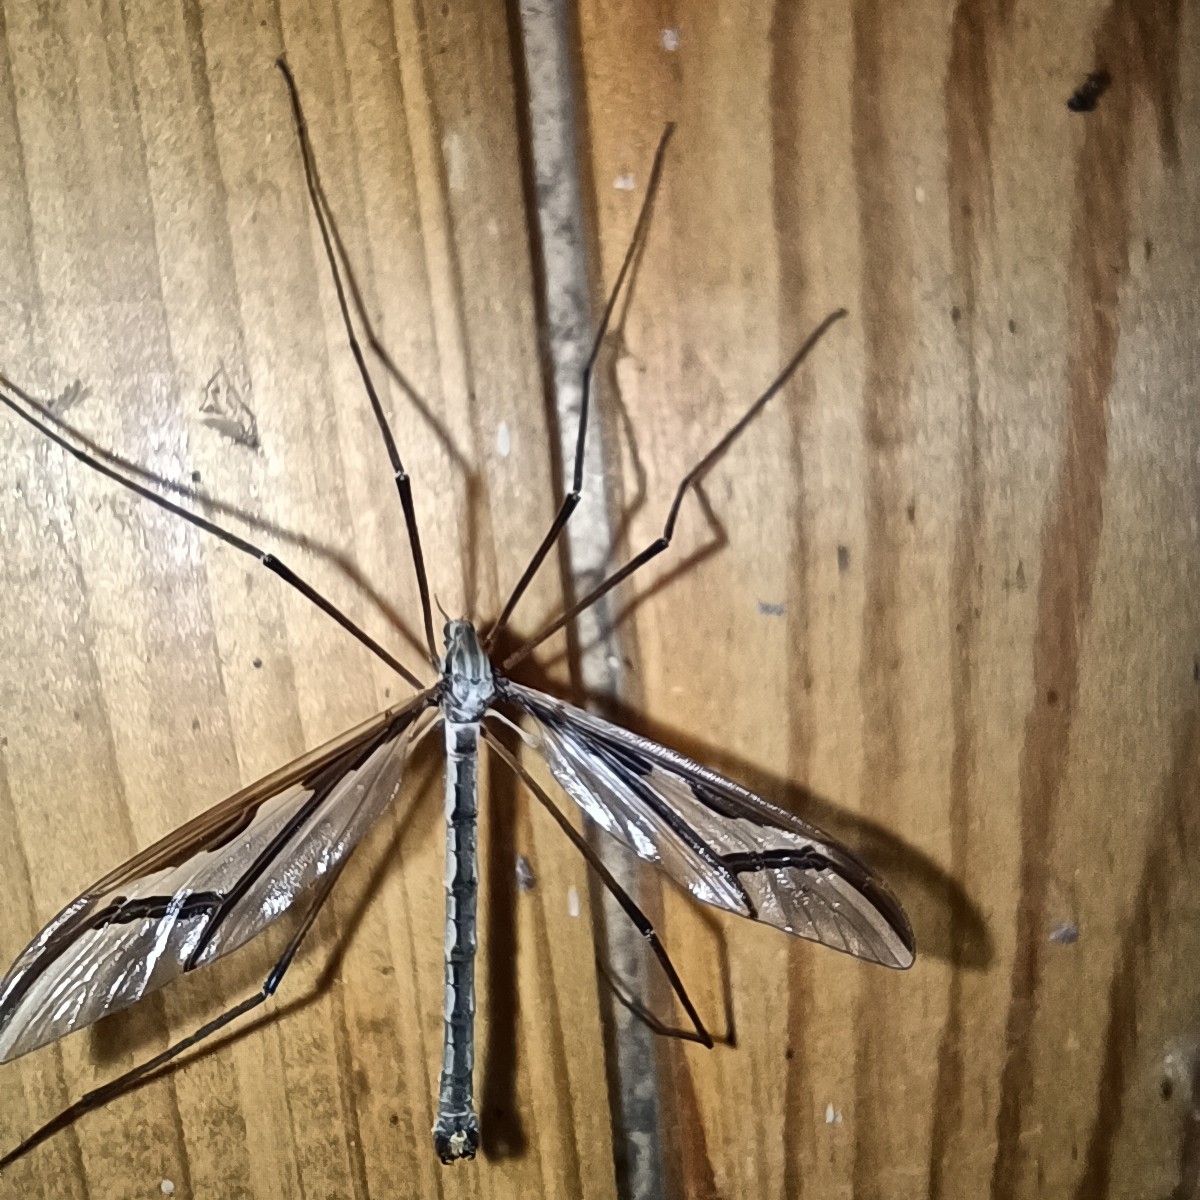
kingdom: Animalia
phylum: Arthropoda
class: Insecta
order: Diptera
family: Pediciidae
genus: Pedicia
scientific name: Pedicia rivosa
